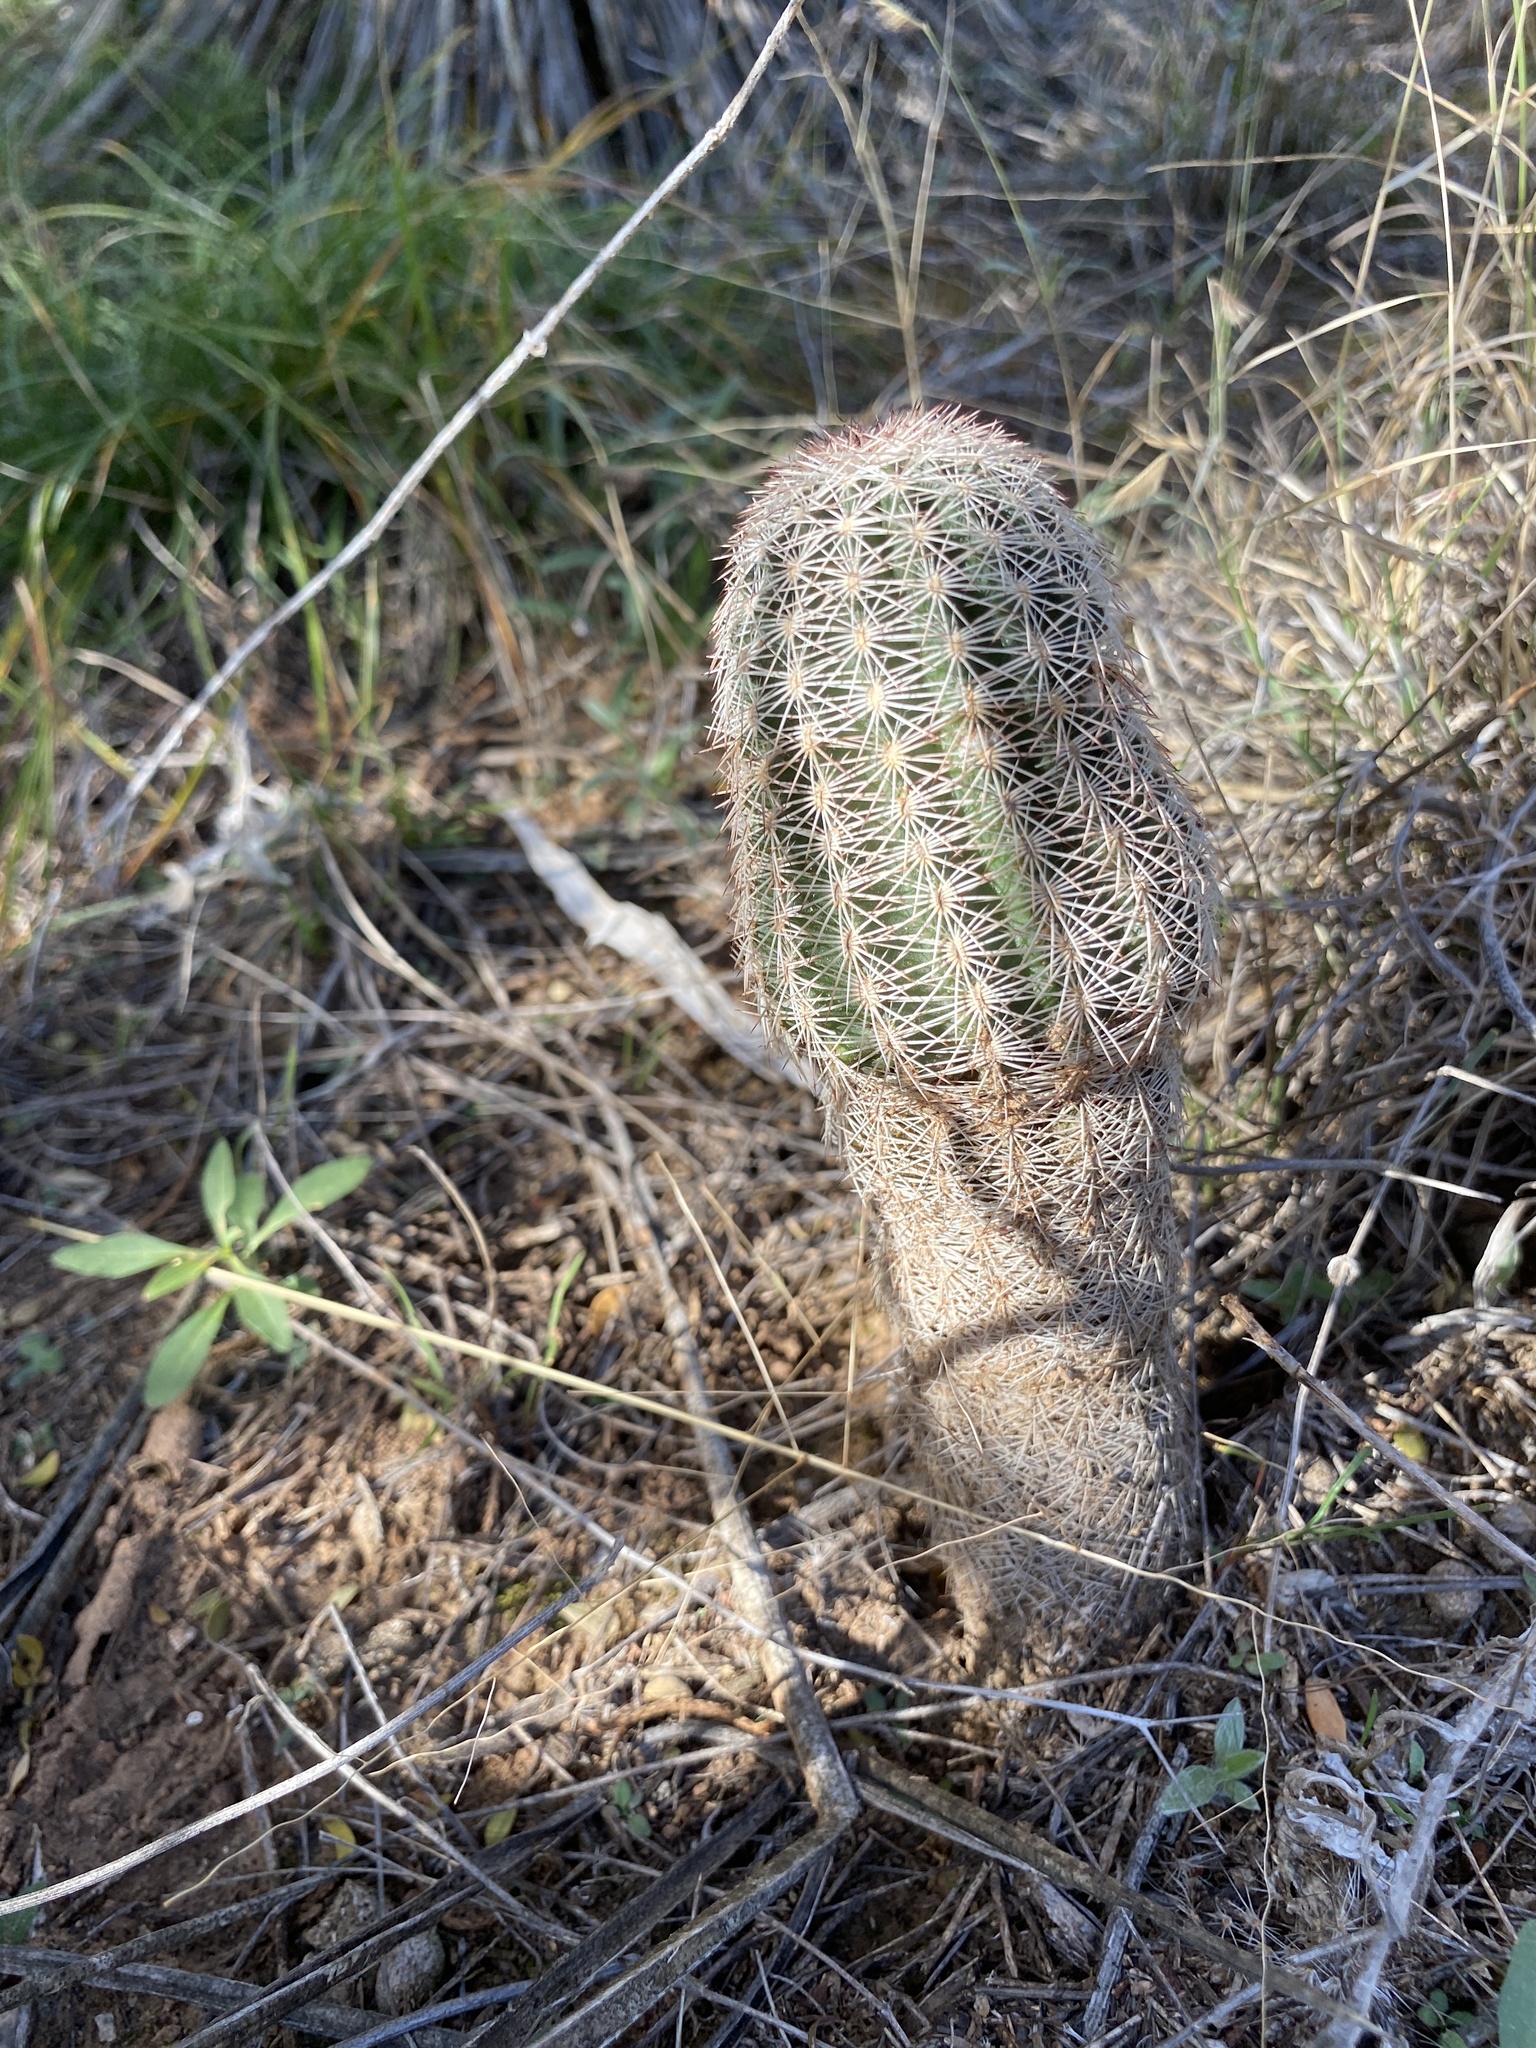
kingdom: Plantae
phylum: Tracheophyta
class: Magnoliopsida
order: Caryophyllales
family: Cactaceae
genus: Echinocereus
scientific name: Echinocereus reichenbachii
